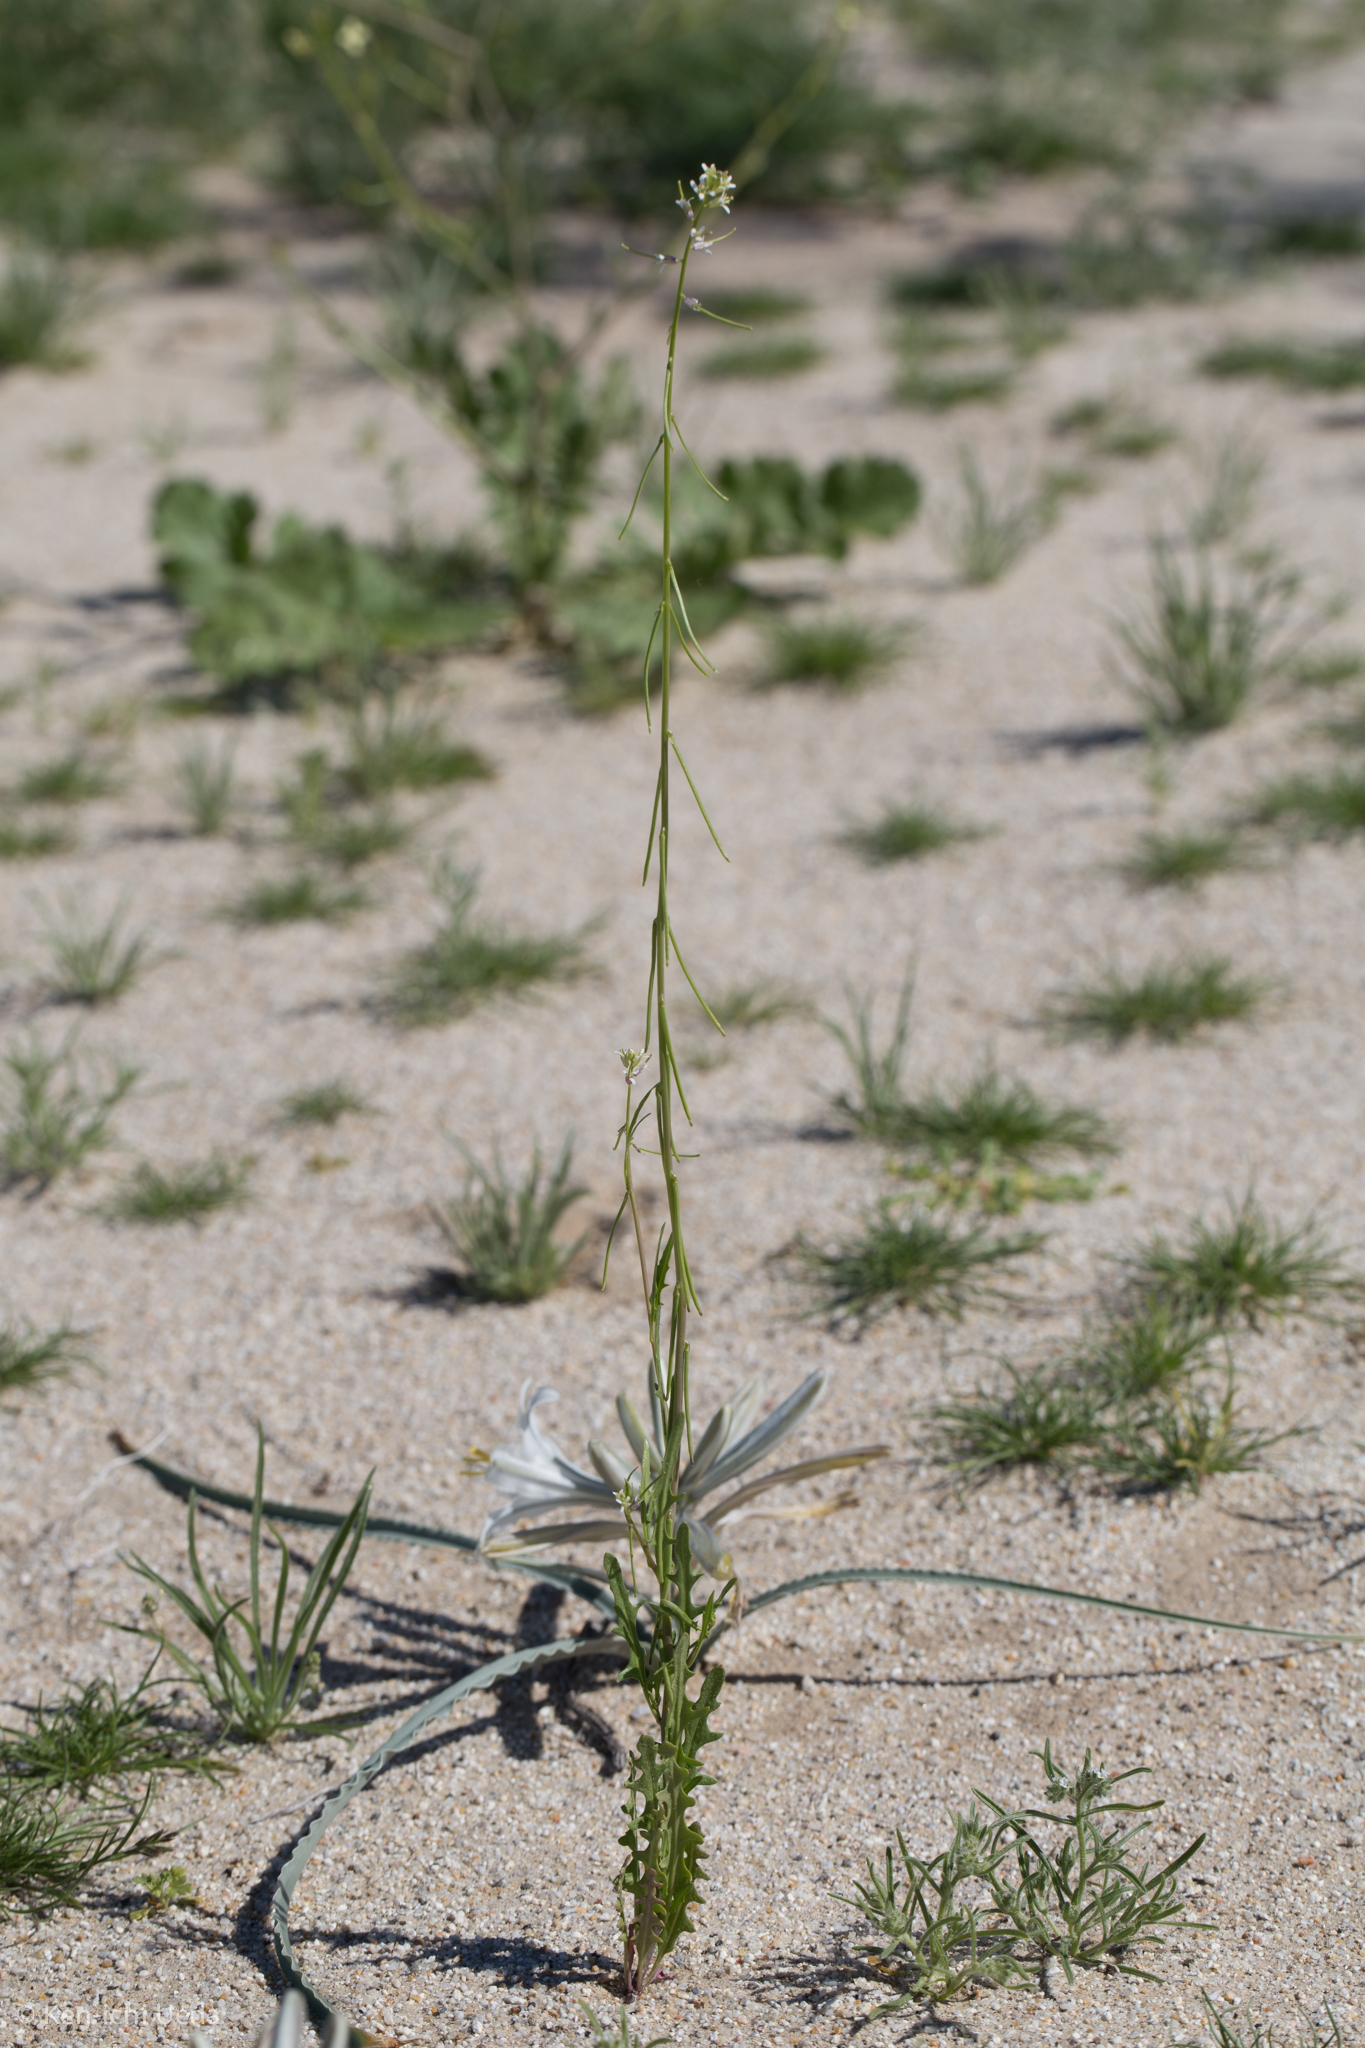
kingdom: Plantae
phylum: Tracheophyta
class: Magnoliopsida
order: Brassicales
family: Brassicaceae
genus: Streptanthus
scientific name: Streptanthus lasiophyllus
